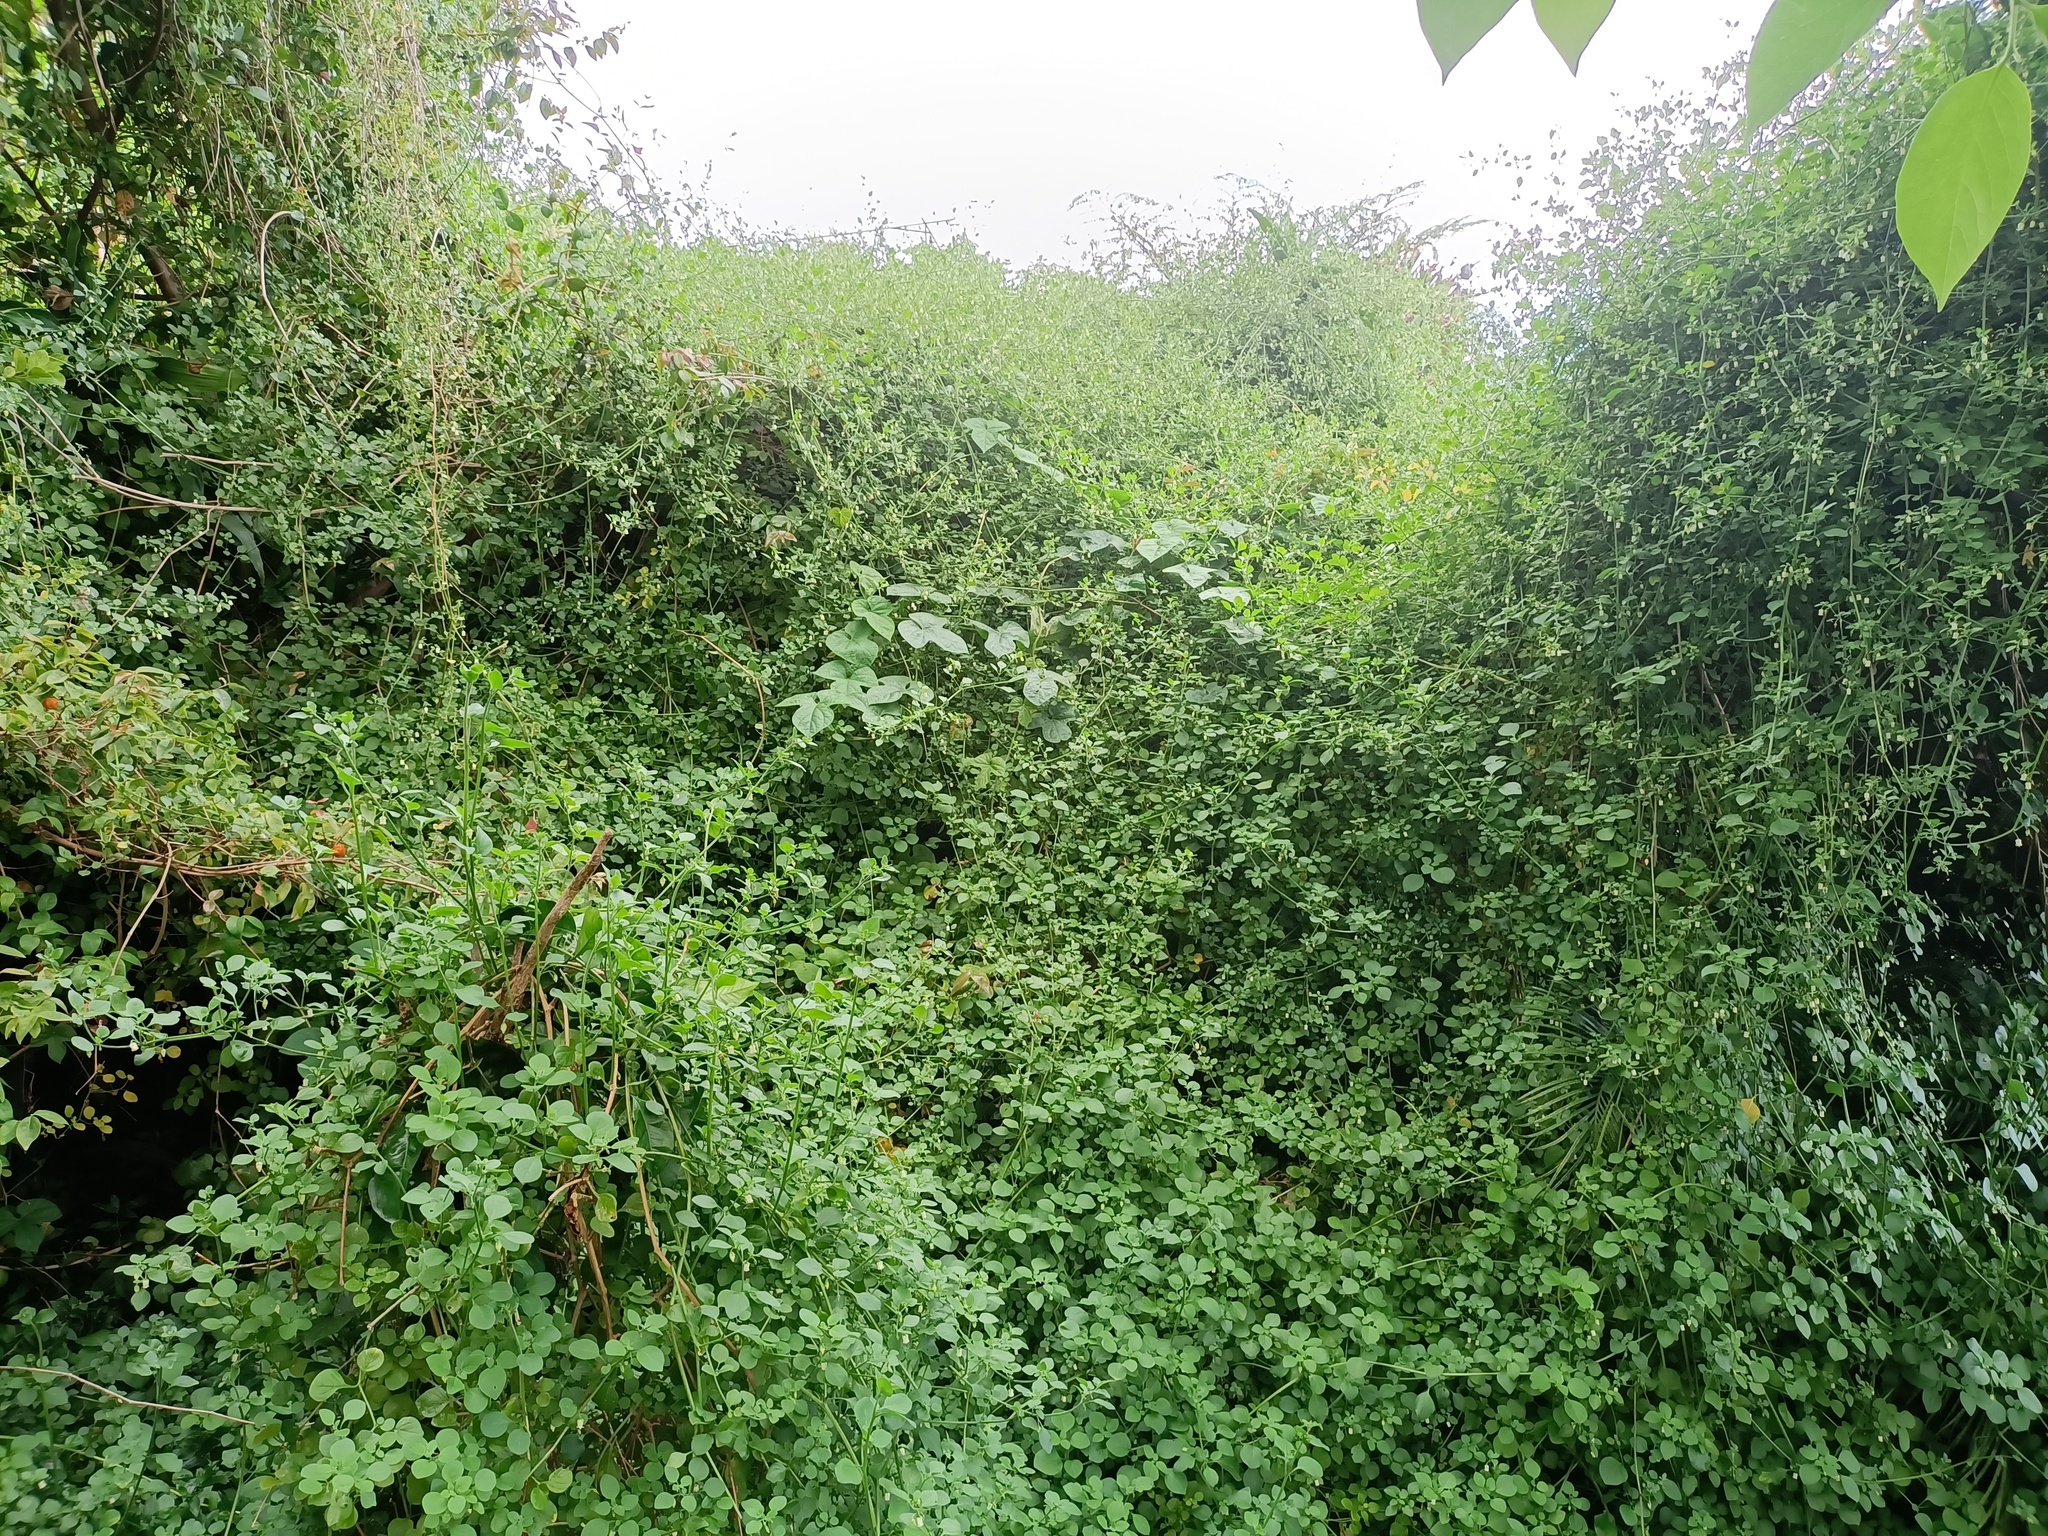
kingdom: Plantae
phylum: Tracheophyta
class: Magnoliopsida
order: Solanales
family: Solanaceae
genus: Salpichroa
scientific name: Salpichroa origanifolia
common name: Lily-of-the-valley-vine
